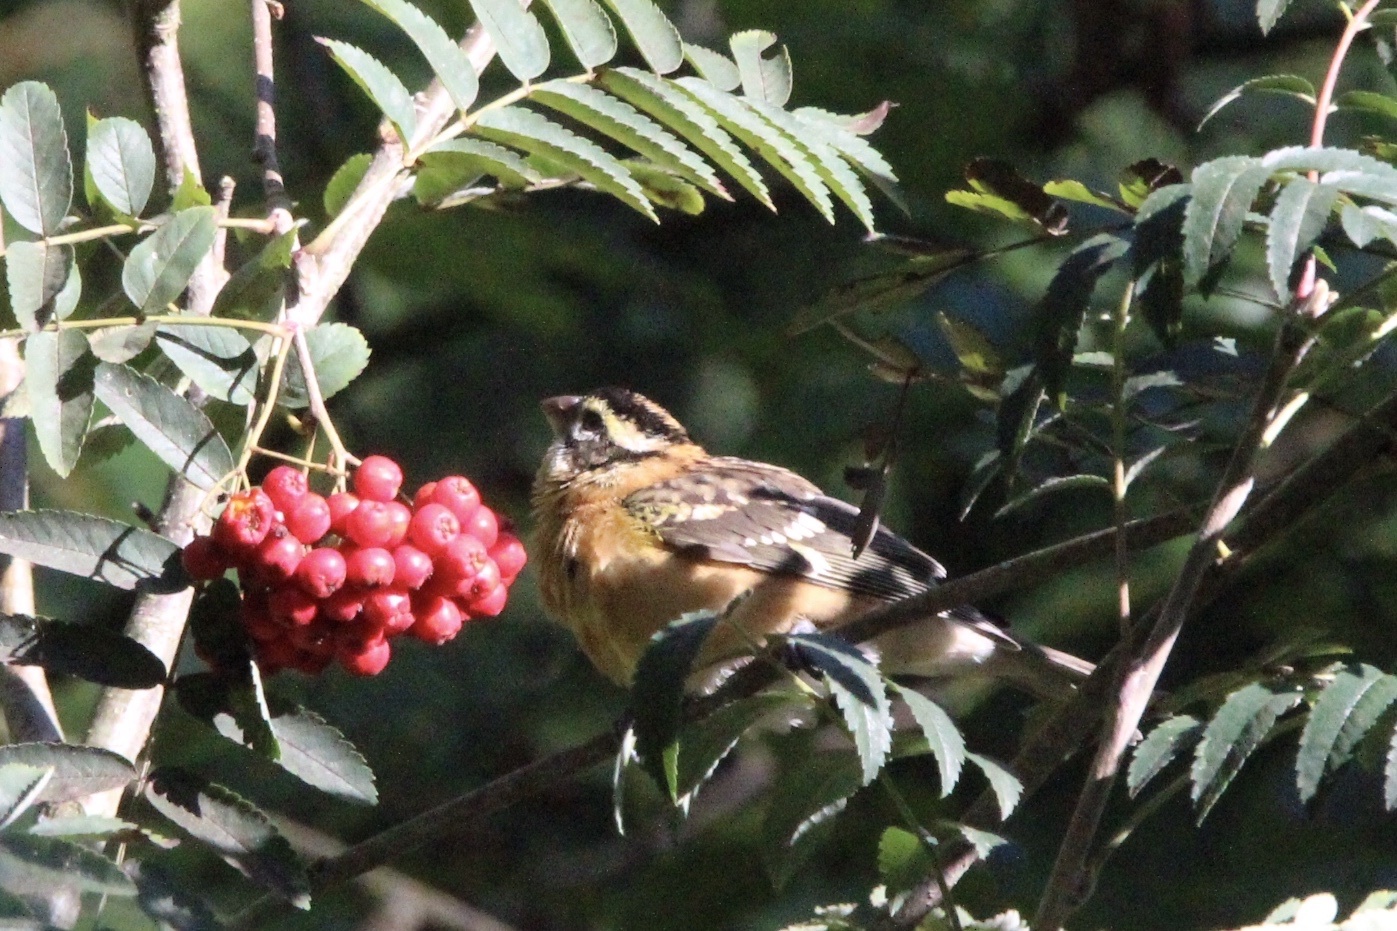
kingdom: Animalia
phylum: Chordata
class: Aves
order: Passeriformes
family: Cardinalidae
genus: Pheucticus
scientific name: Pheucticus melanocephalus
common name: Black-headed grosbeak
